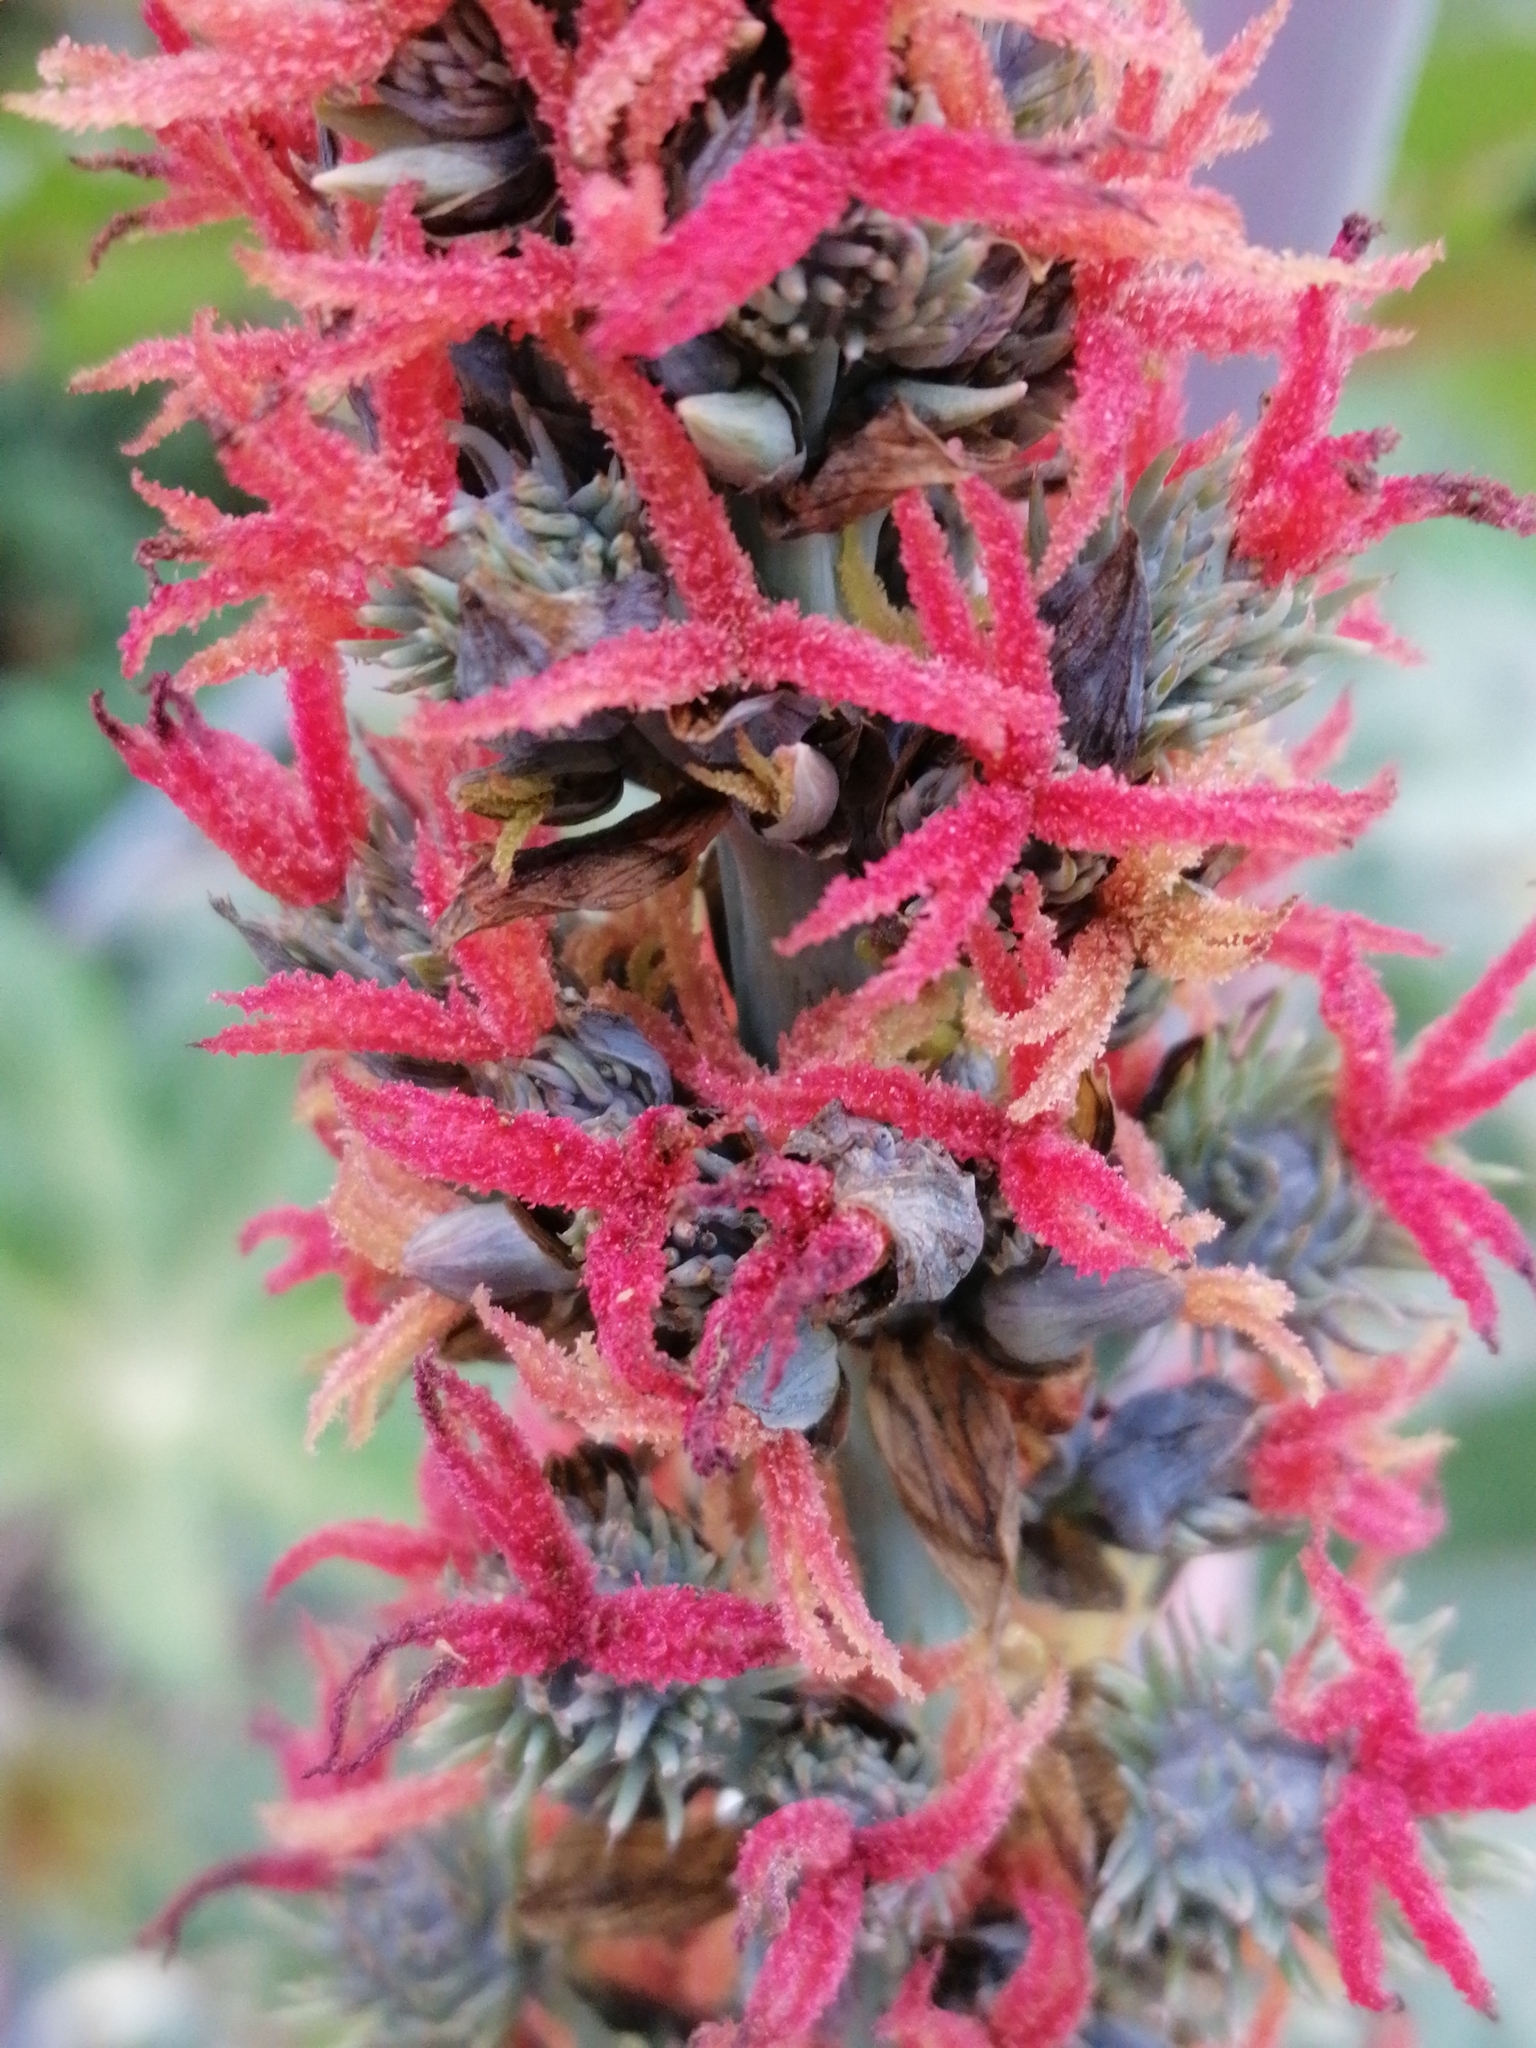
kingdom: Plantae
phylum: Tracheophyta
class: Magnoliopsida
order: Malpighiales
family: Euphorbiaceae
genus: Ricinus
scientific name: Ricinus communis
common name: Castor-oil-plant
